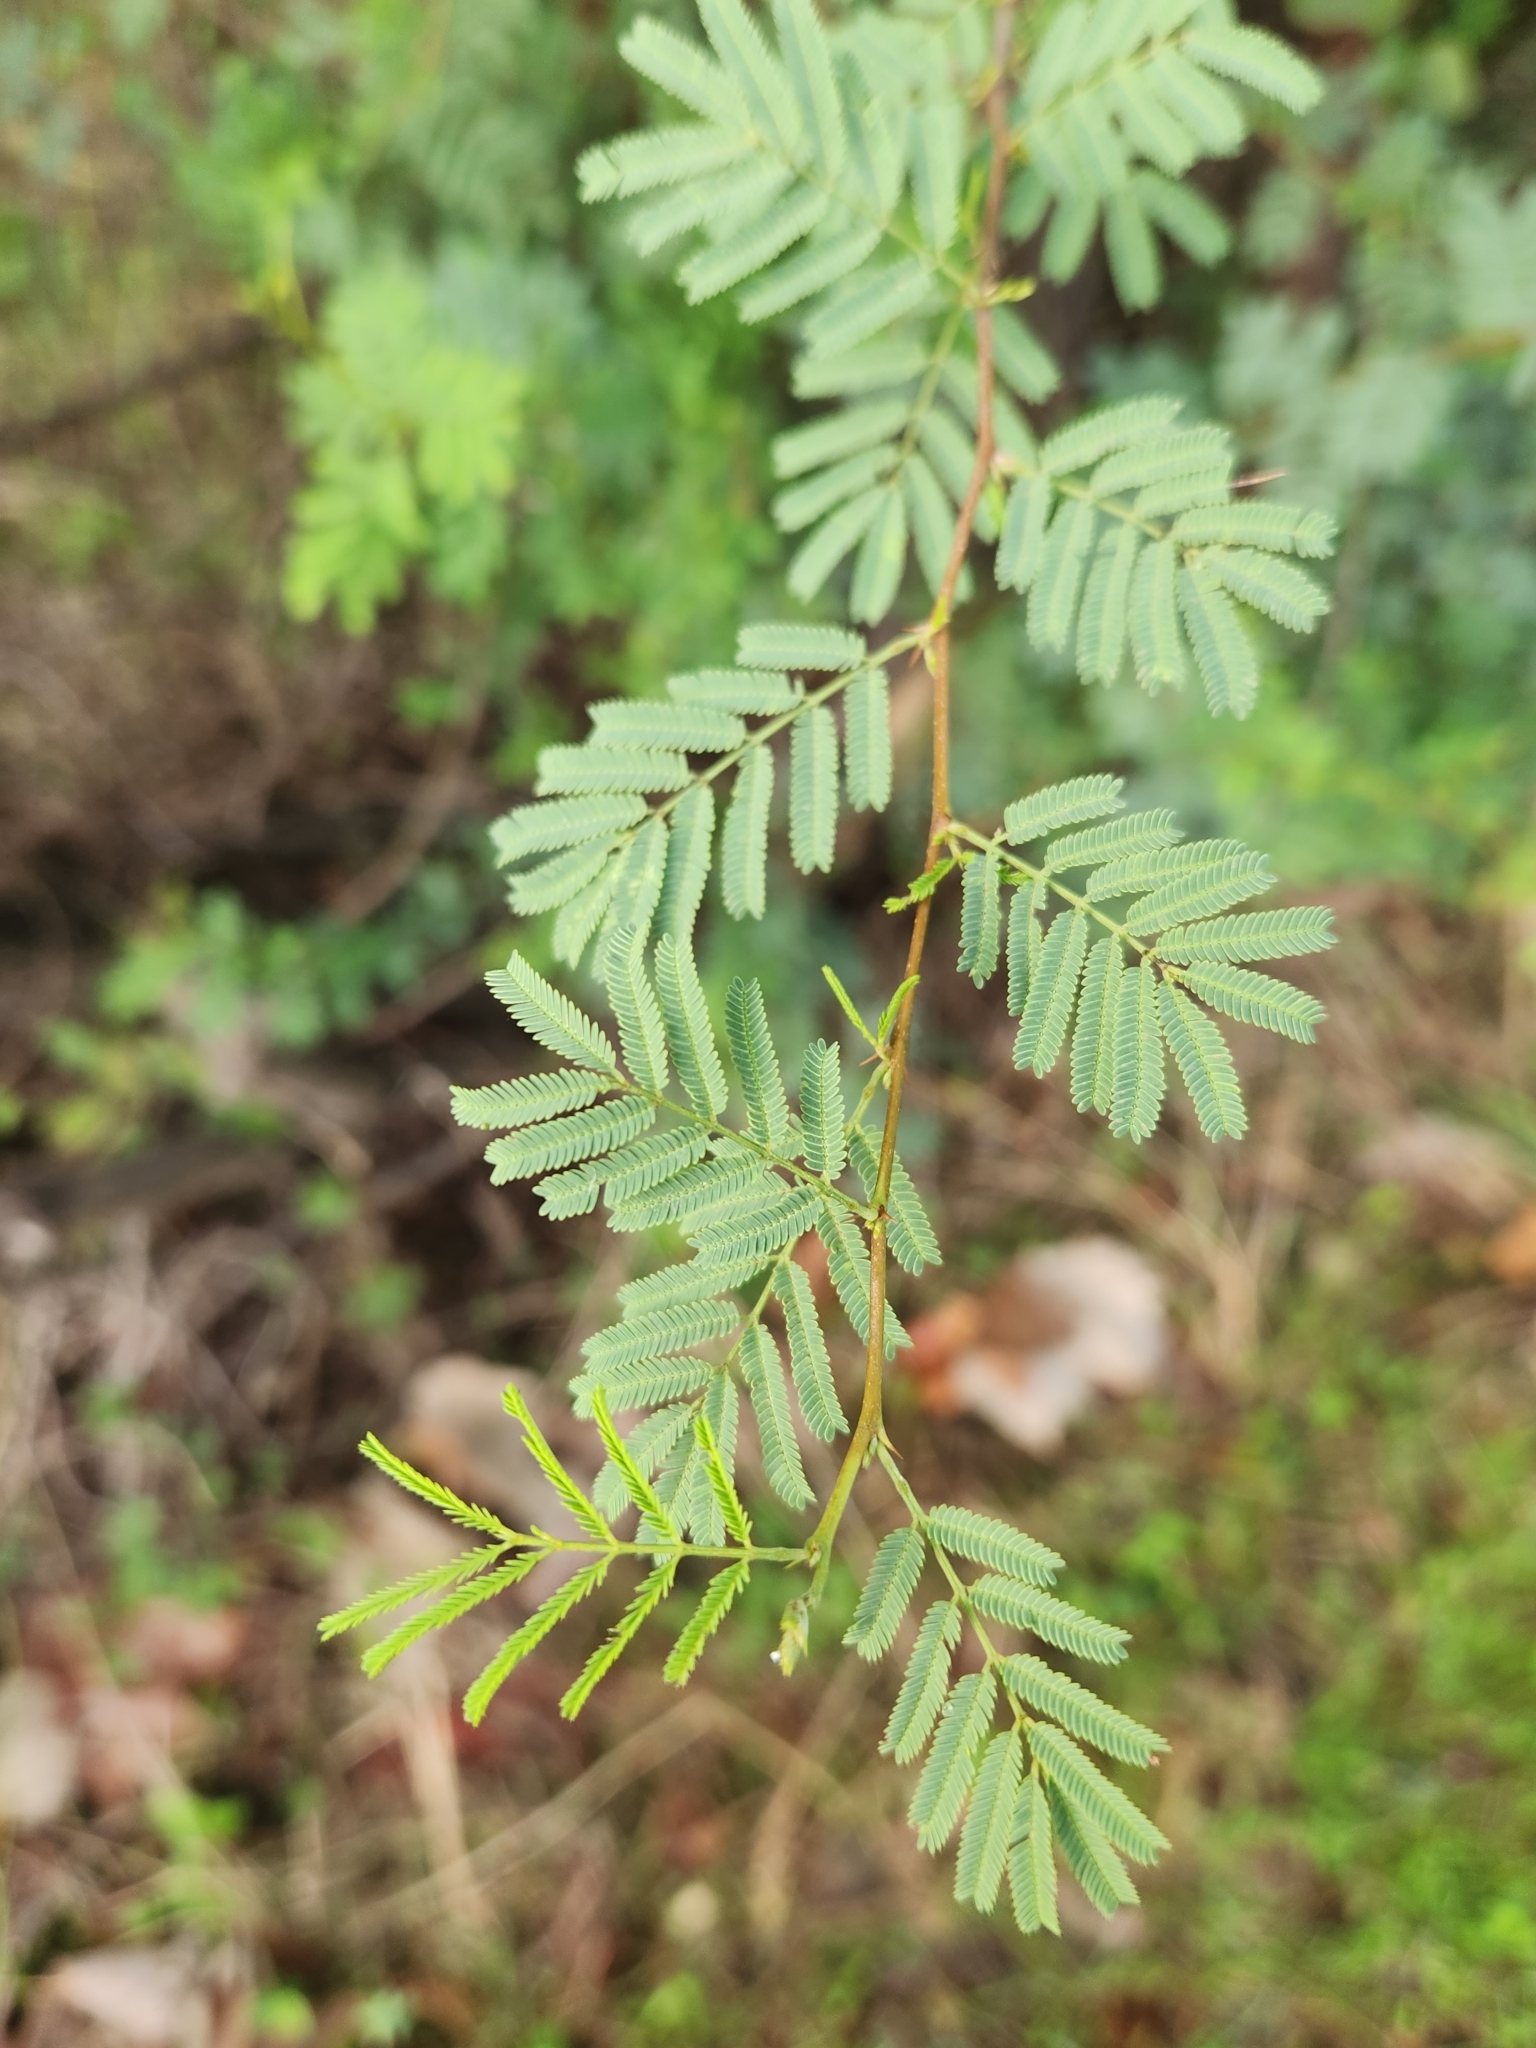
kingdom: Plantae
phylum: Tracheophyta
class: Magnoliopsida
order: Fabales
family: Fabaceae
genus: Vachellia
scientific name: Vachellia farnesiana
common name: Sweet acacia
